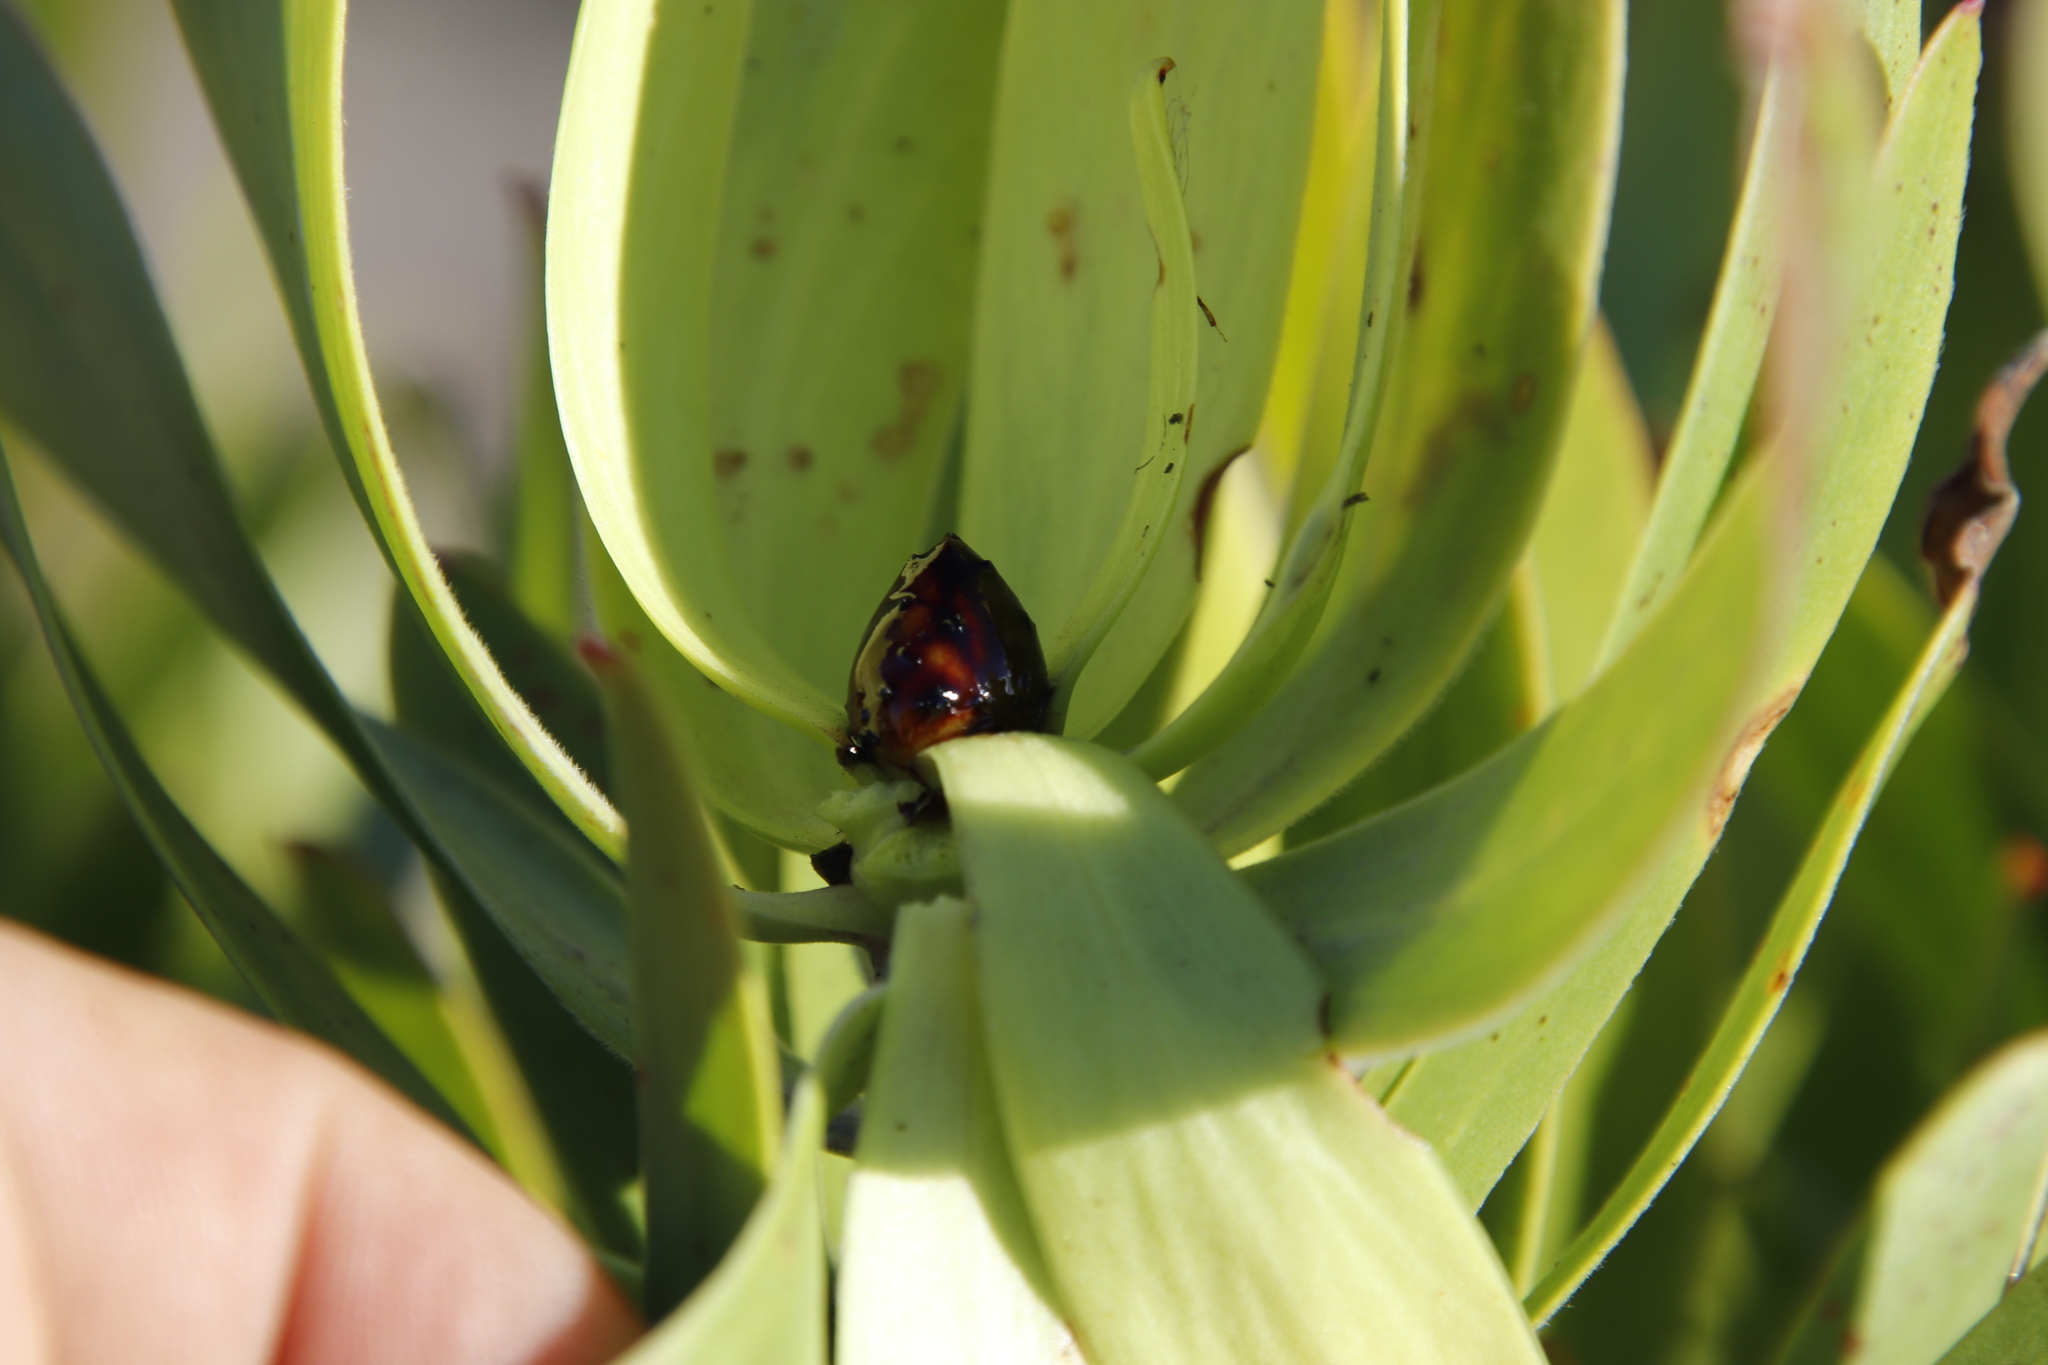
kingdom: Plantae
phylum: Tracheophyta
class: Magnoliopsida
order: Proteales
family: Proteaceae
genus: Leucadendron
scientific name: Leucadendron microcephalum
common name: Oilbract conebush
